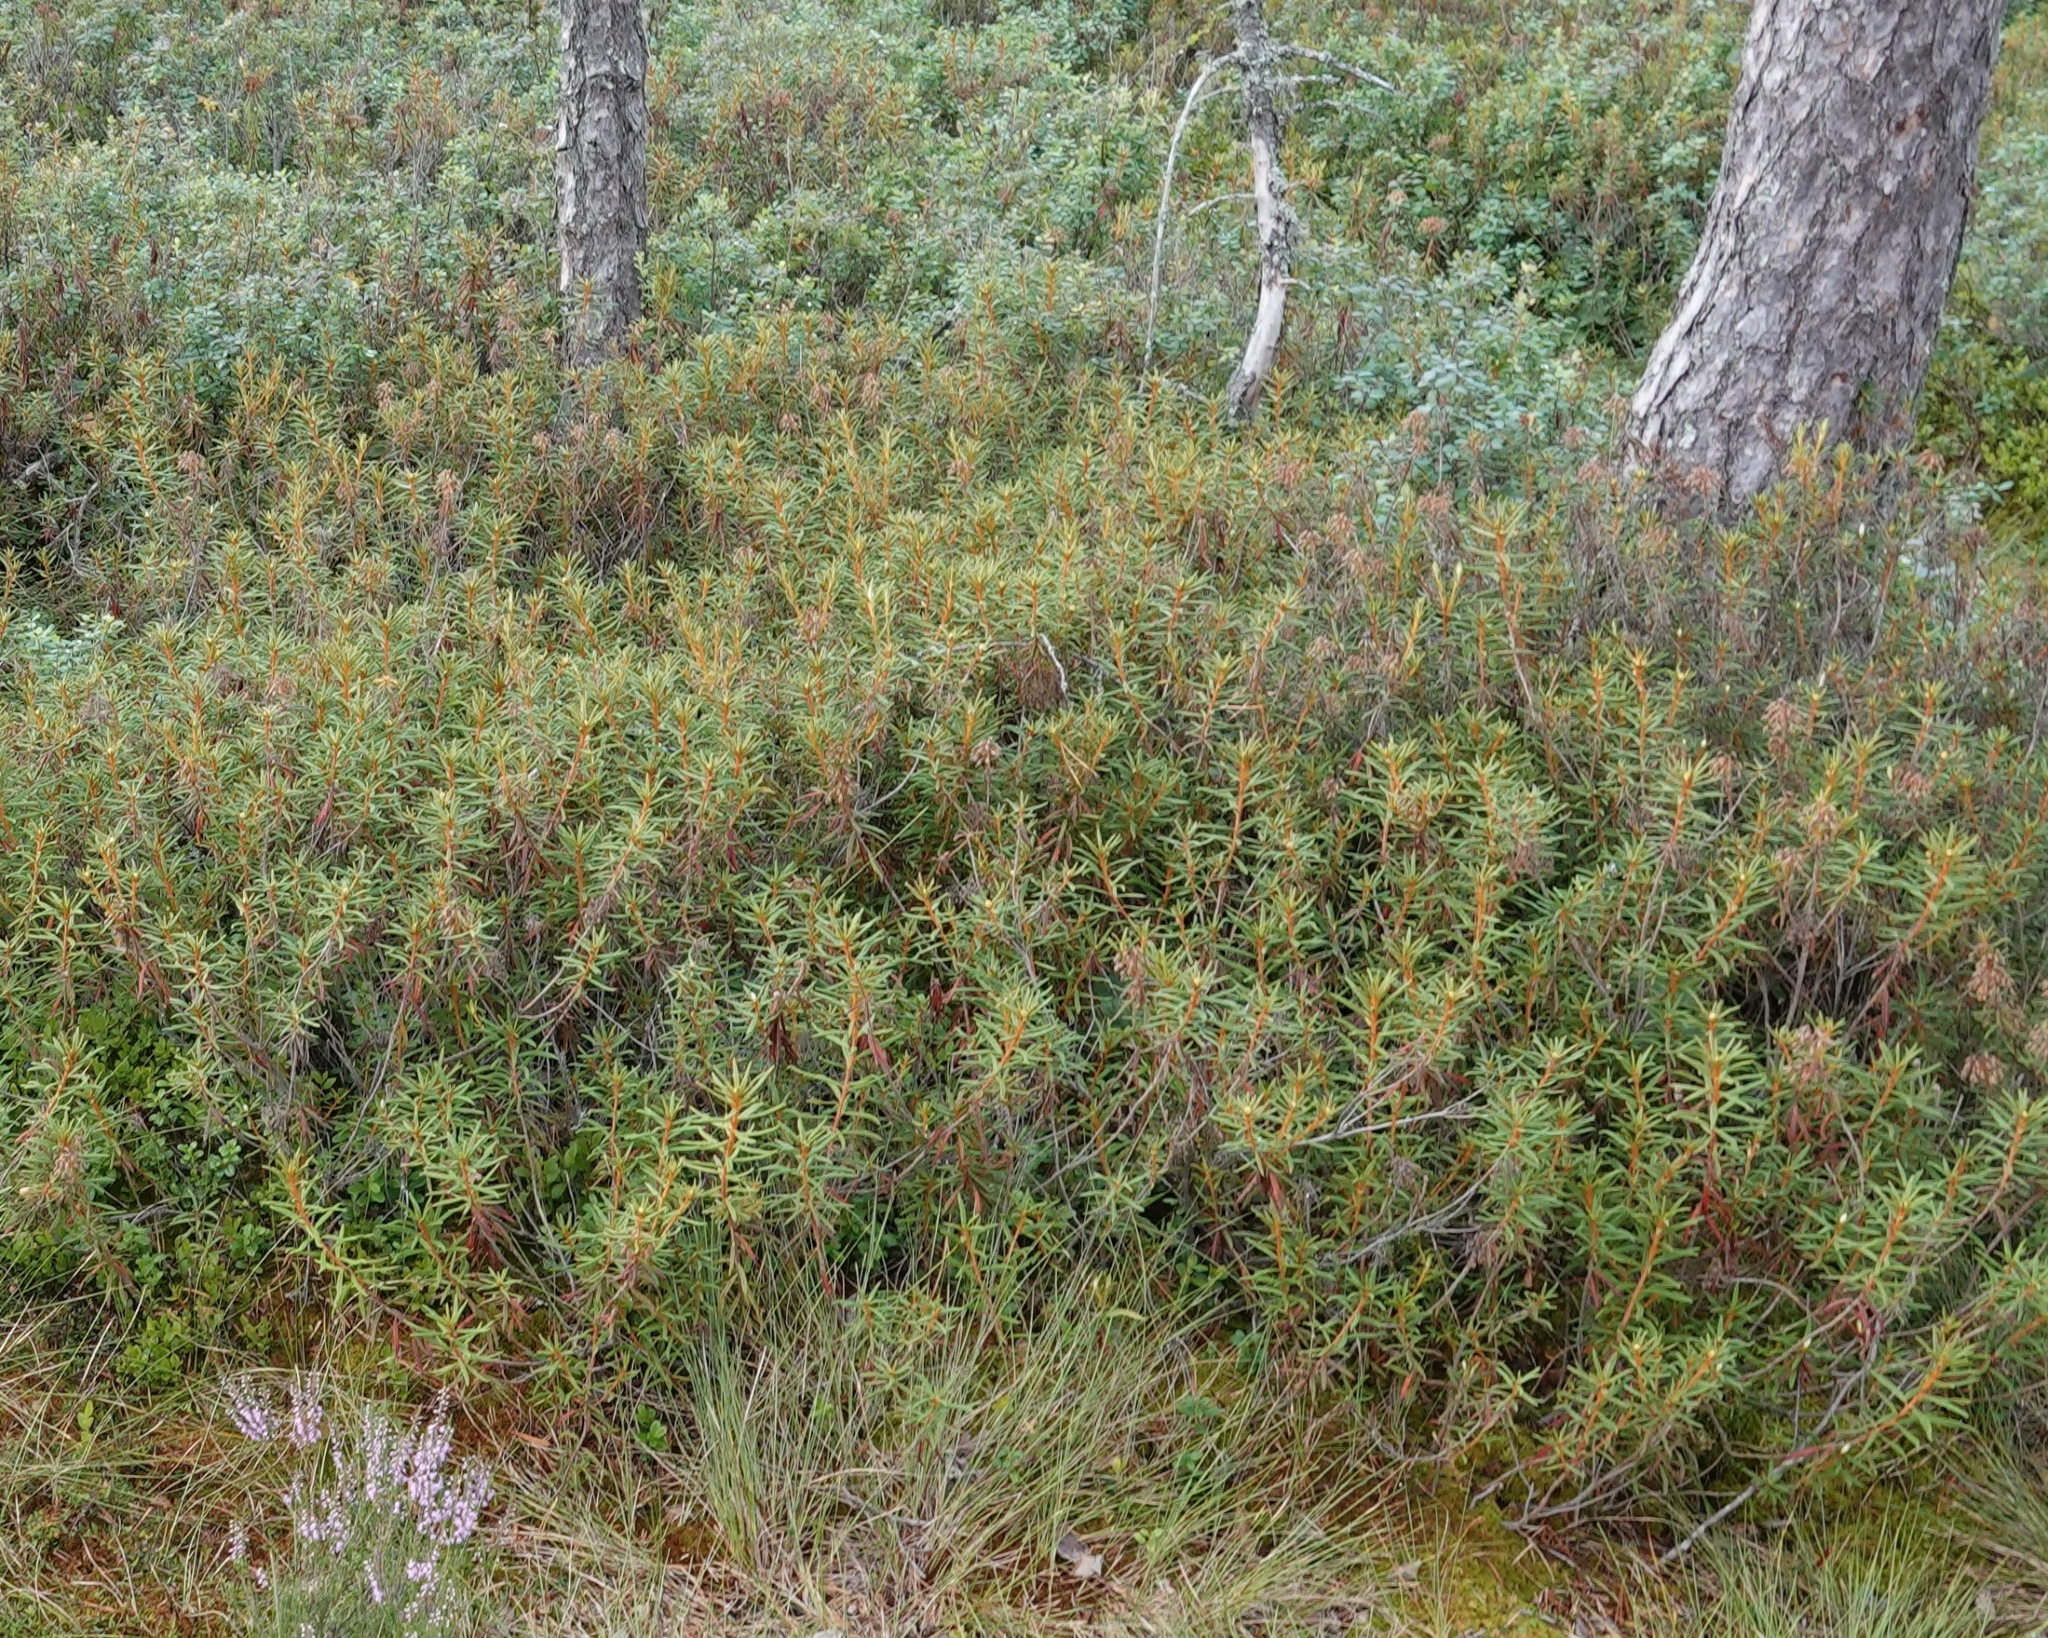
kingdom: Plantae
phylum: Tracheophyta
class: Magnoliopsida
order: Ericales
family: Ericaceae
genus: Rhododendron
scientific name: Rhododendron tomentosum
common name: Marsh labrador tea
